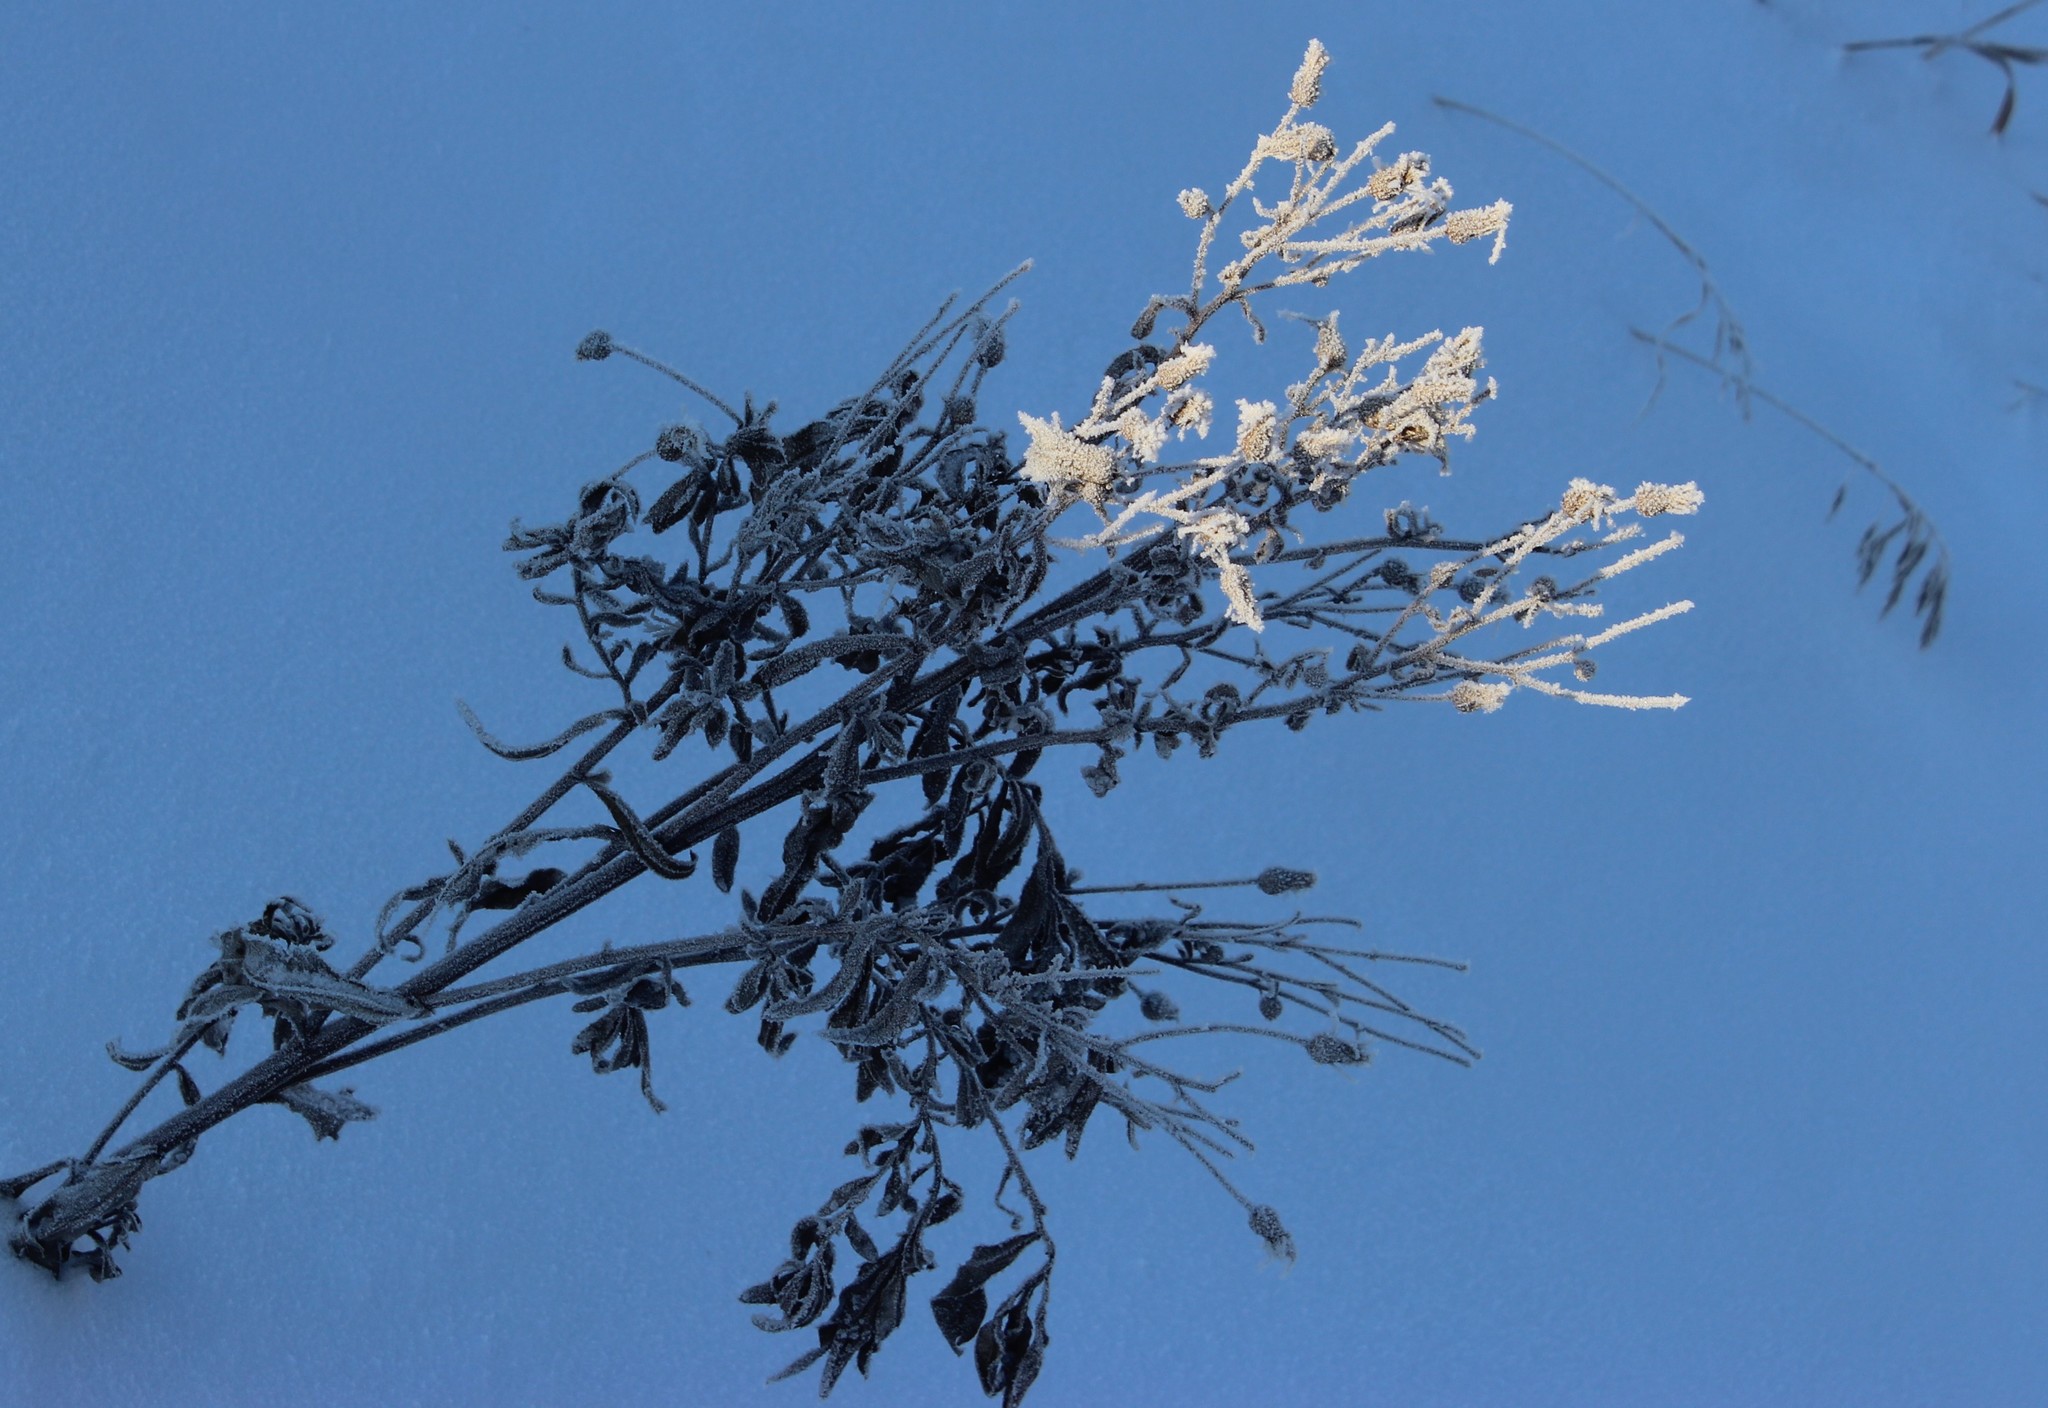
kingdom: Plantae
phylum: Tracheophyta
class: Magnoliopsida
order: Asterales
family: Asteraceae
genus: Cirsium
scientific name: Cirsium arvense
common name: Creeping thistle
